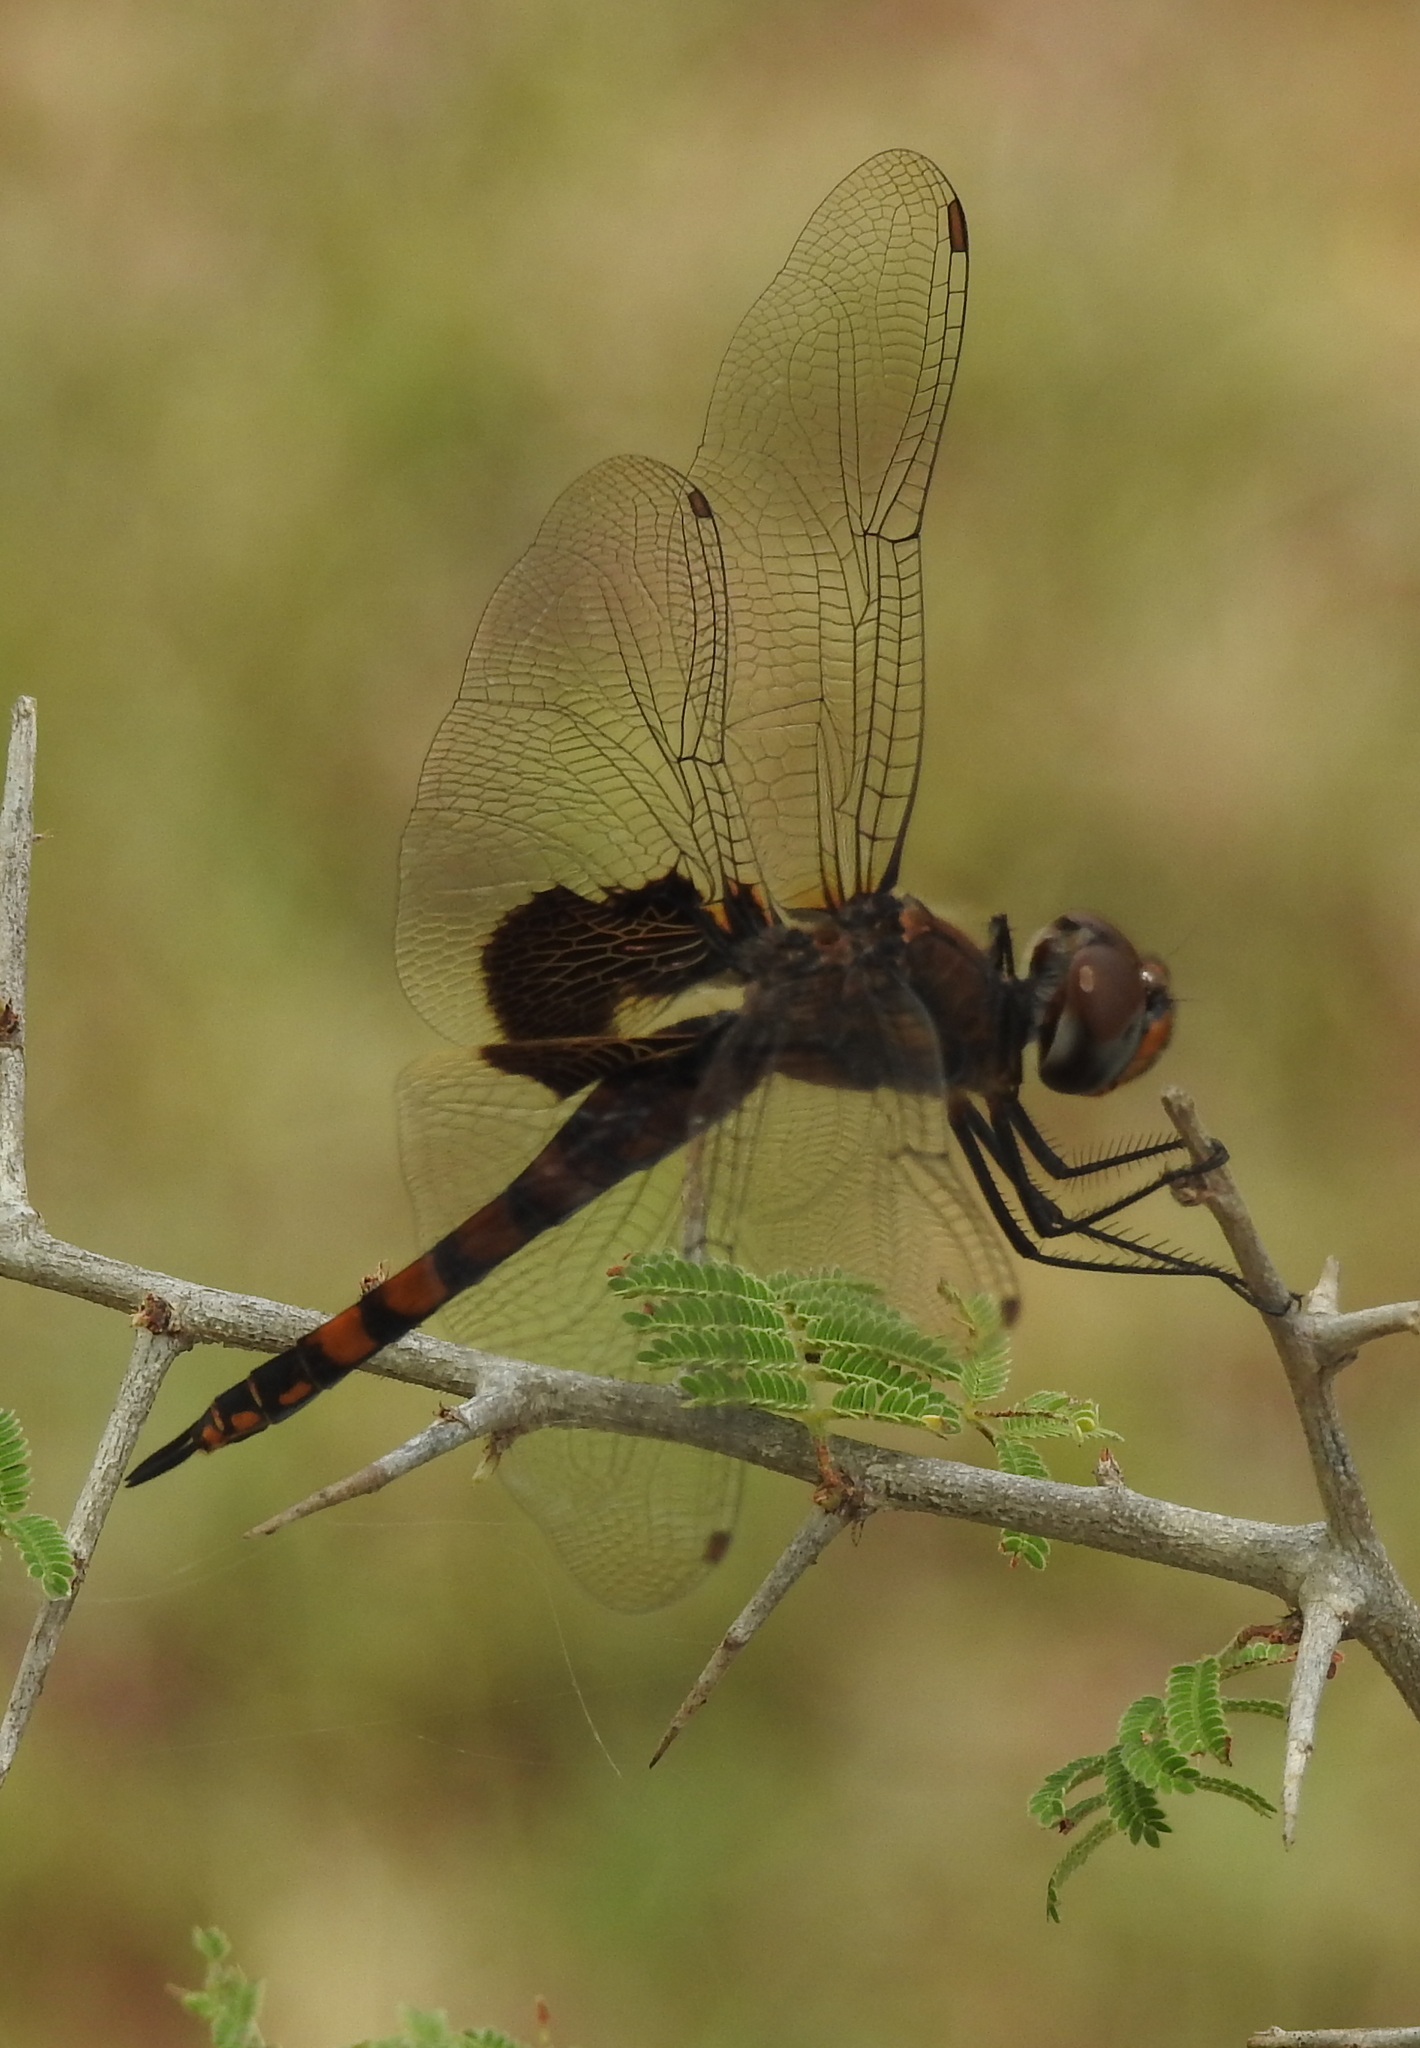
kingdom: Animalia
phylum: Arthropoda
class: Insecta
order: Odonata
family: Libellulidae
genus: Tramea
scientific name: Tramea limbata
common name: Ferruginous glider
